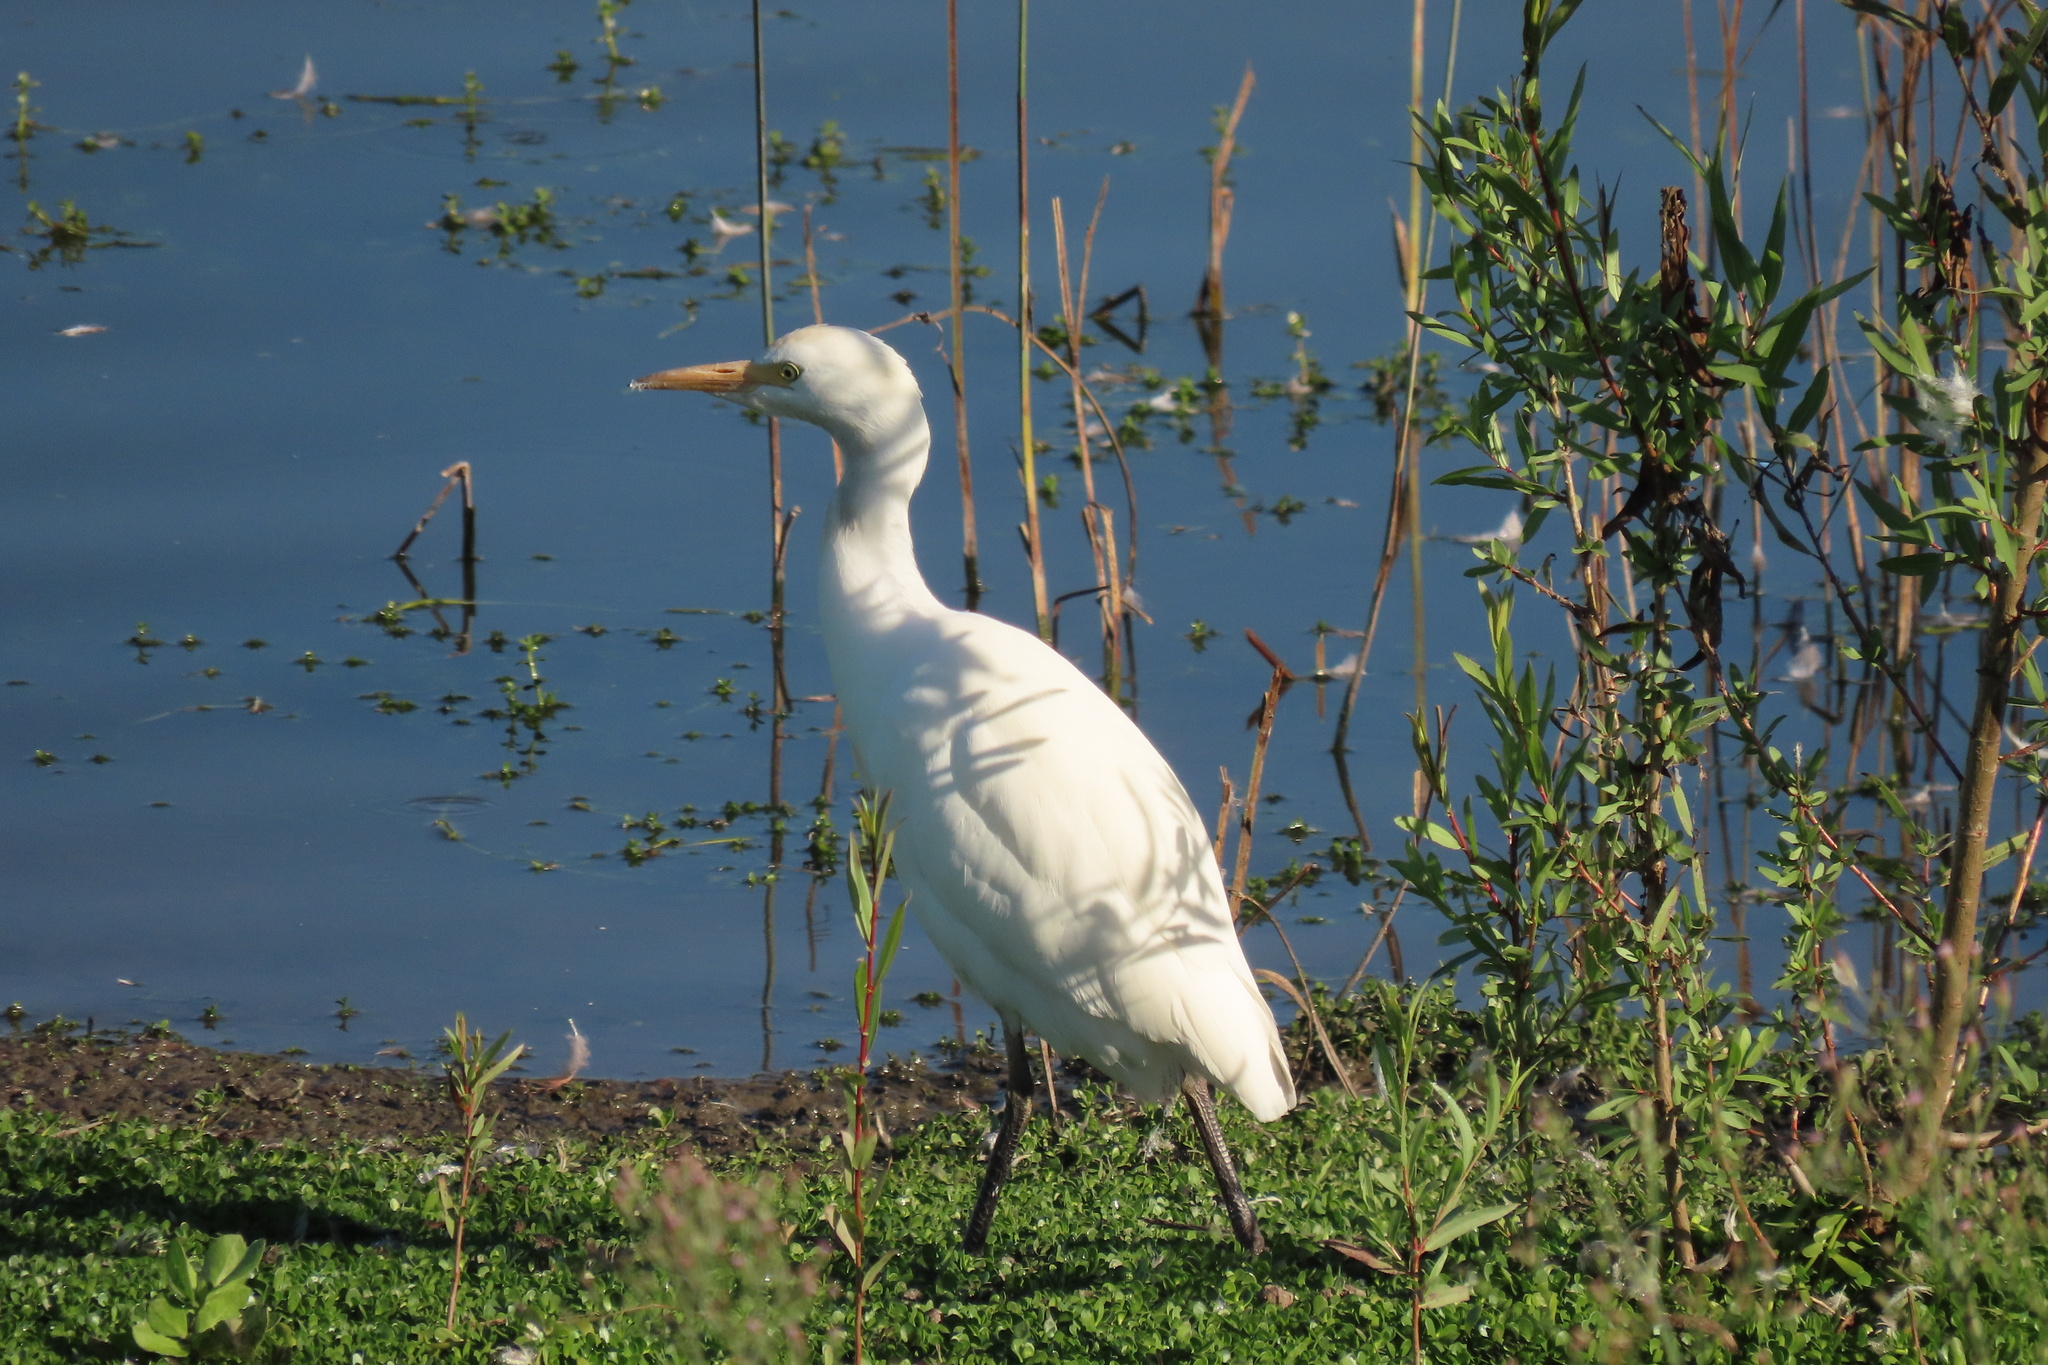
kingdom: Animalia
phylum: Chordata
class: Aves
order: Pelecaniformes
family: Ardeidae
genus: Bubulcus
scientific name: Bubulcus ibis
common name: Cattle egret
